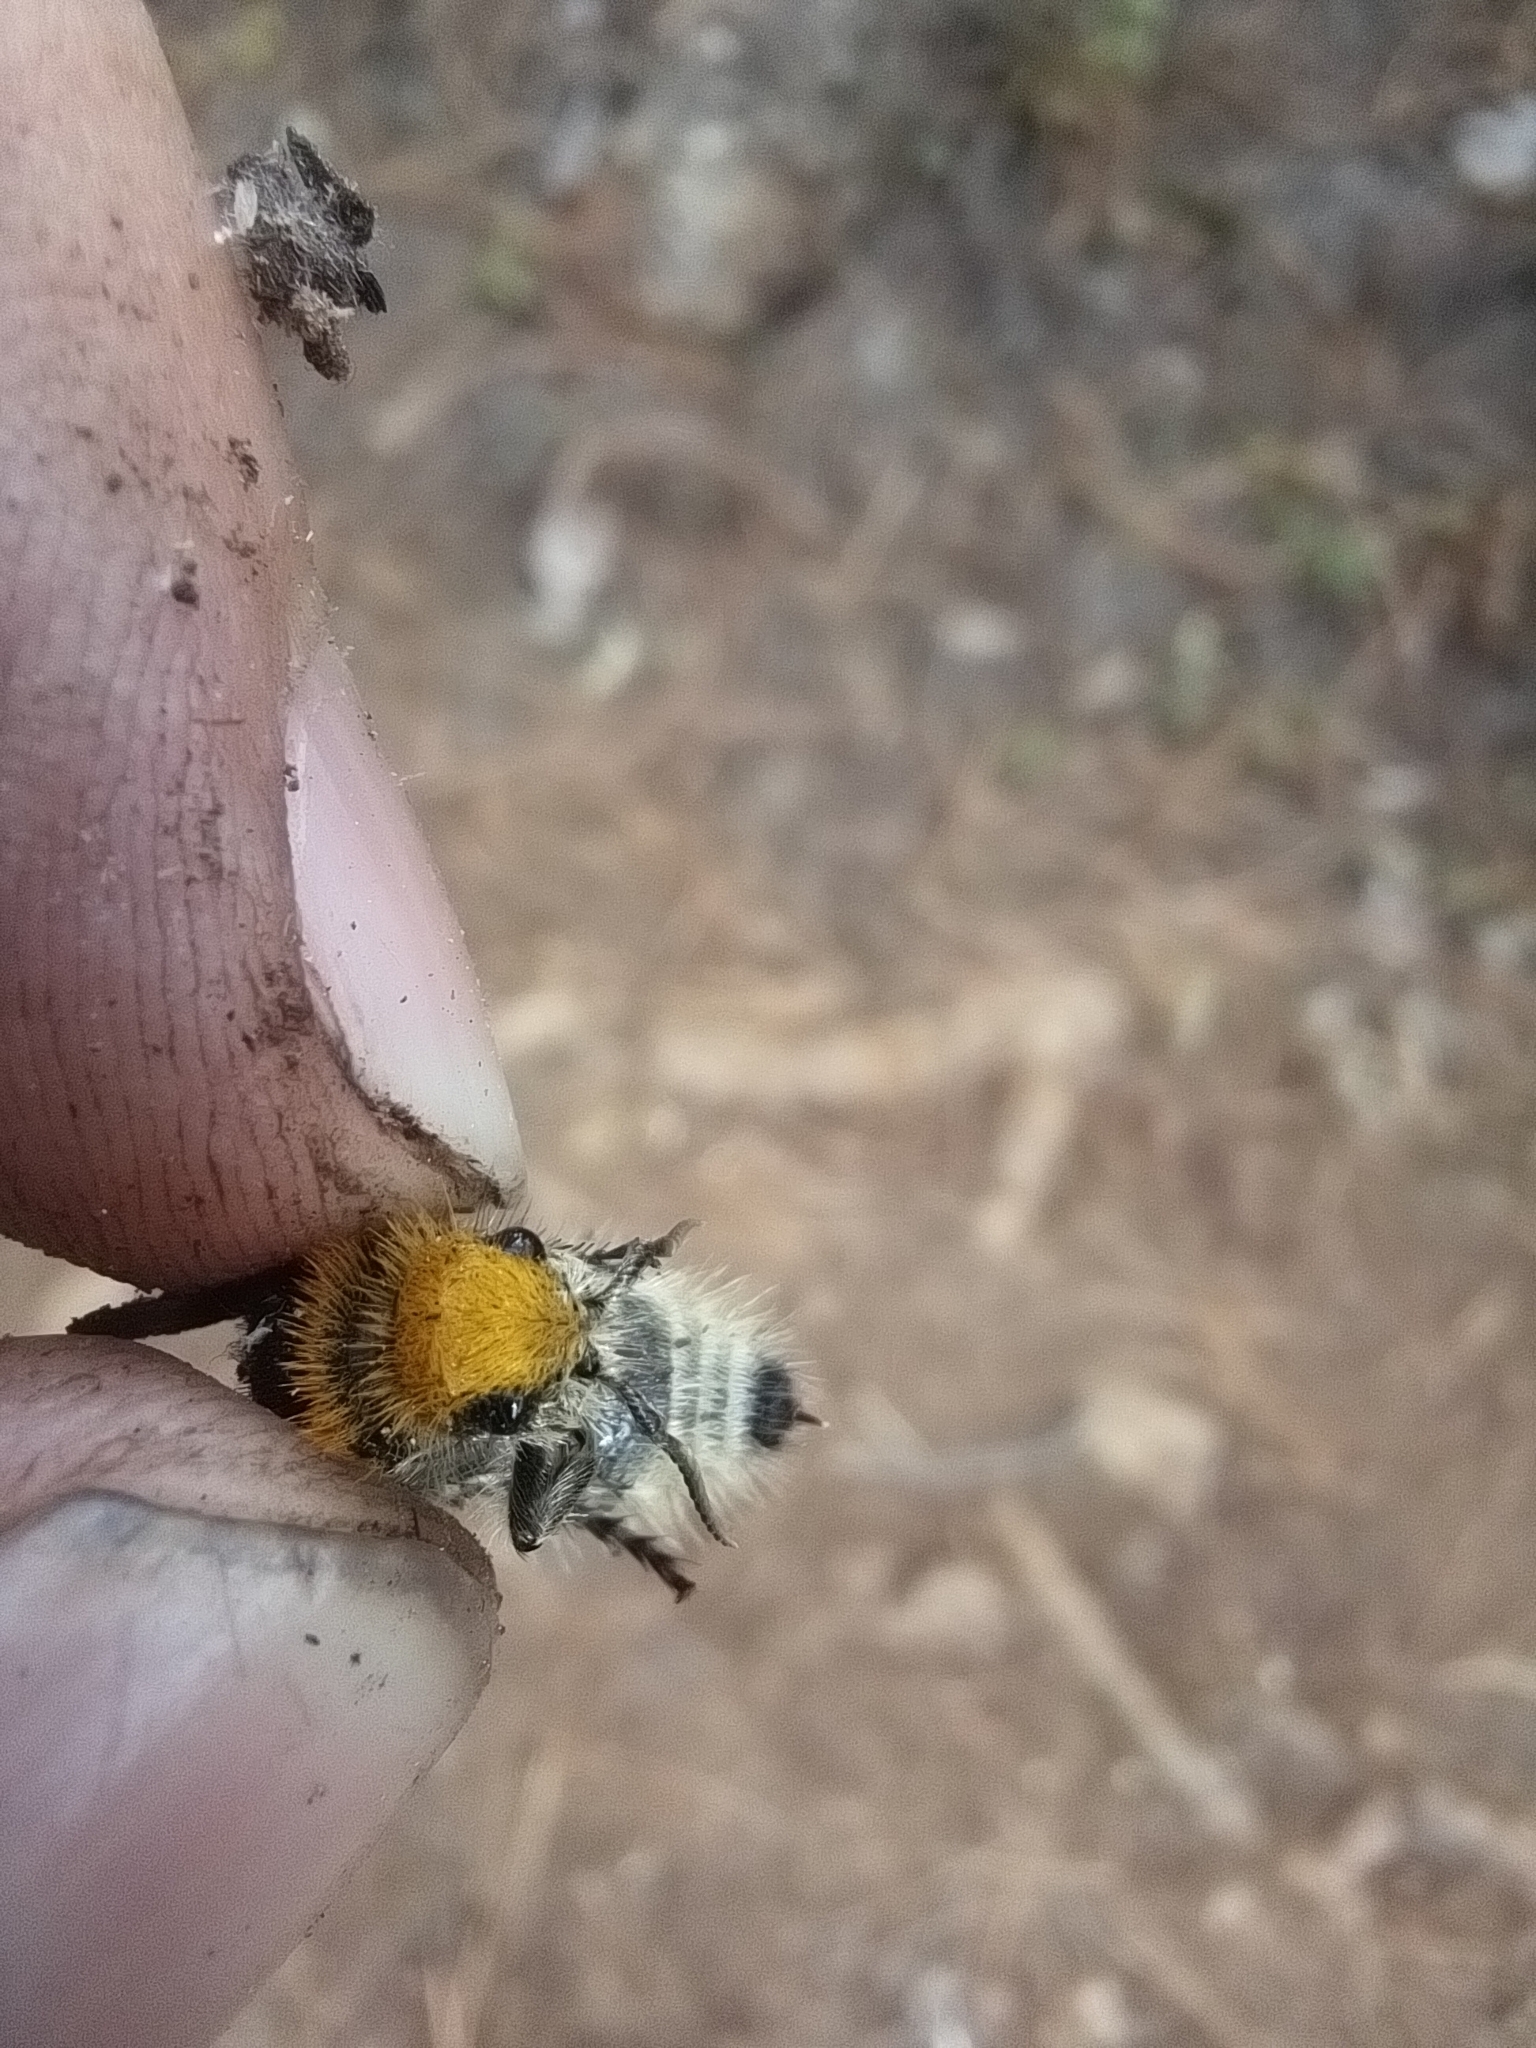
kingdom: Animalia
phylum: Arthropoda
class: Insecta
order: Hymenoptera
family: Mutillidae
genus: Dasymutilla
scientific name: Dasymutilla
